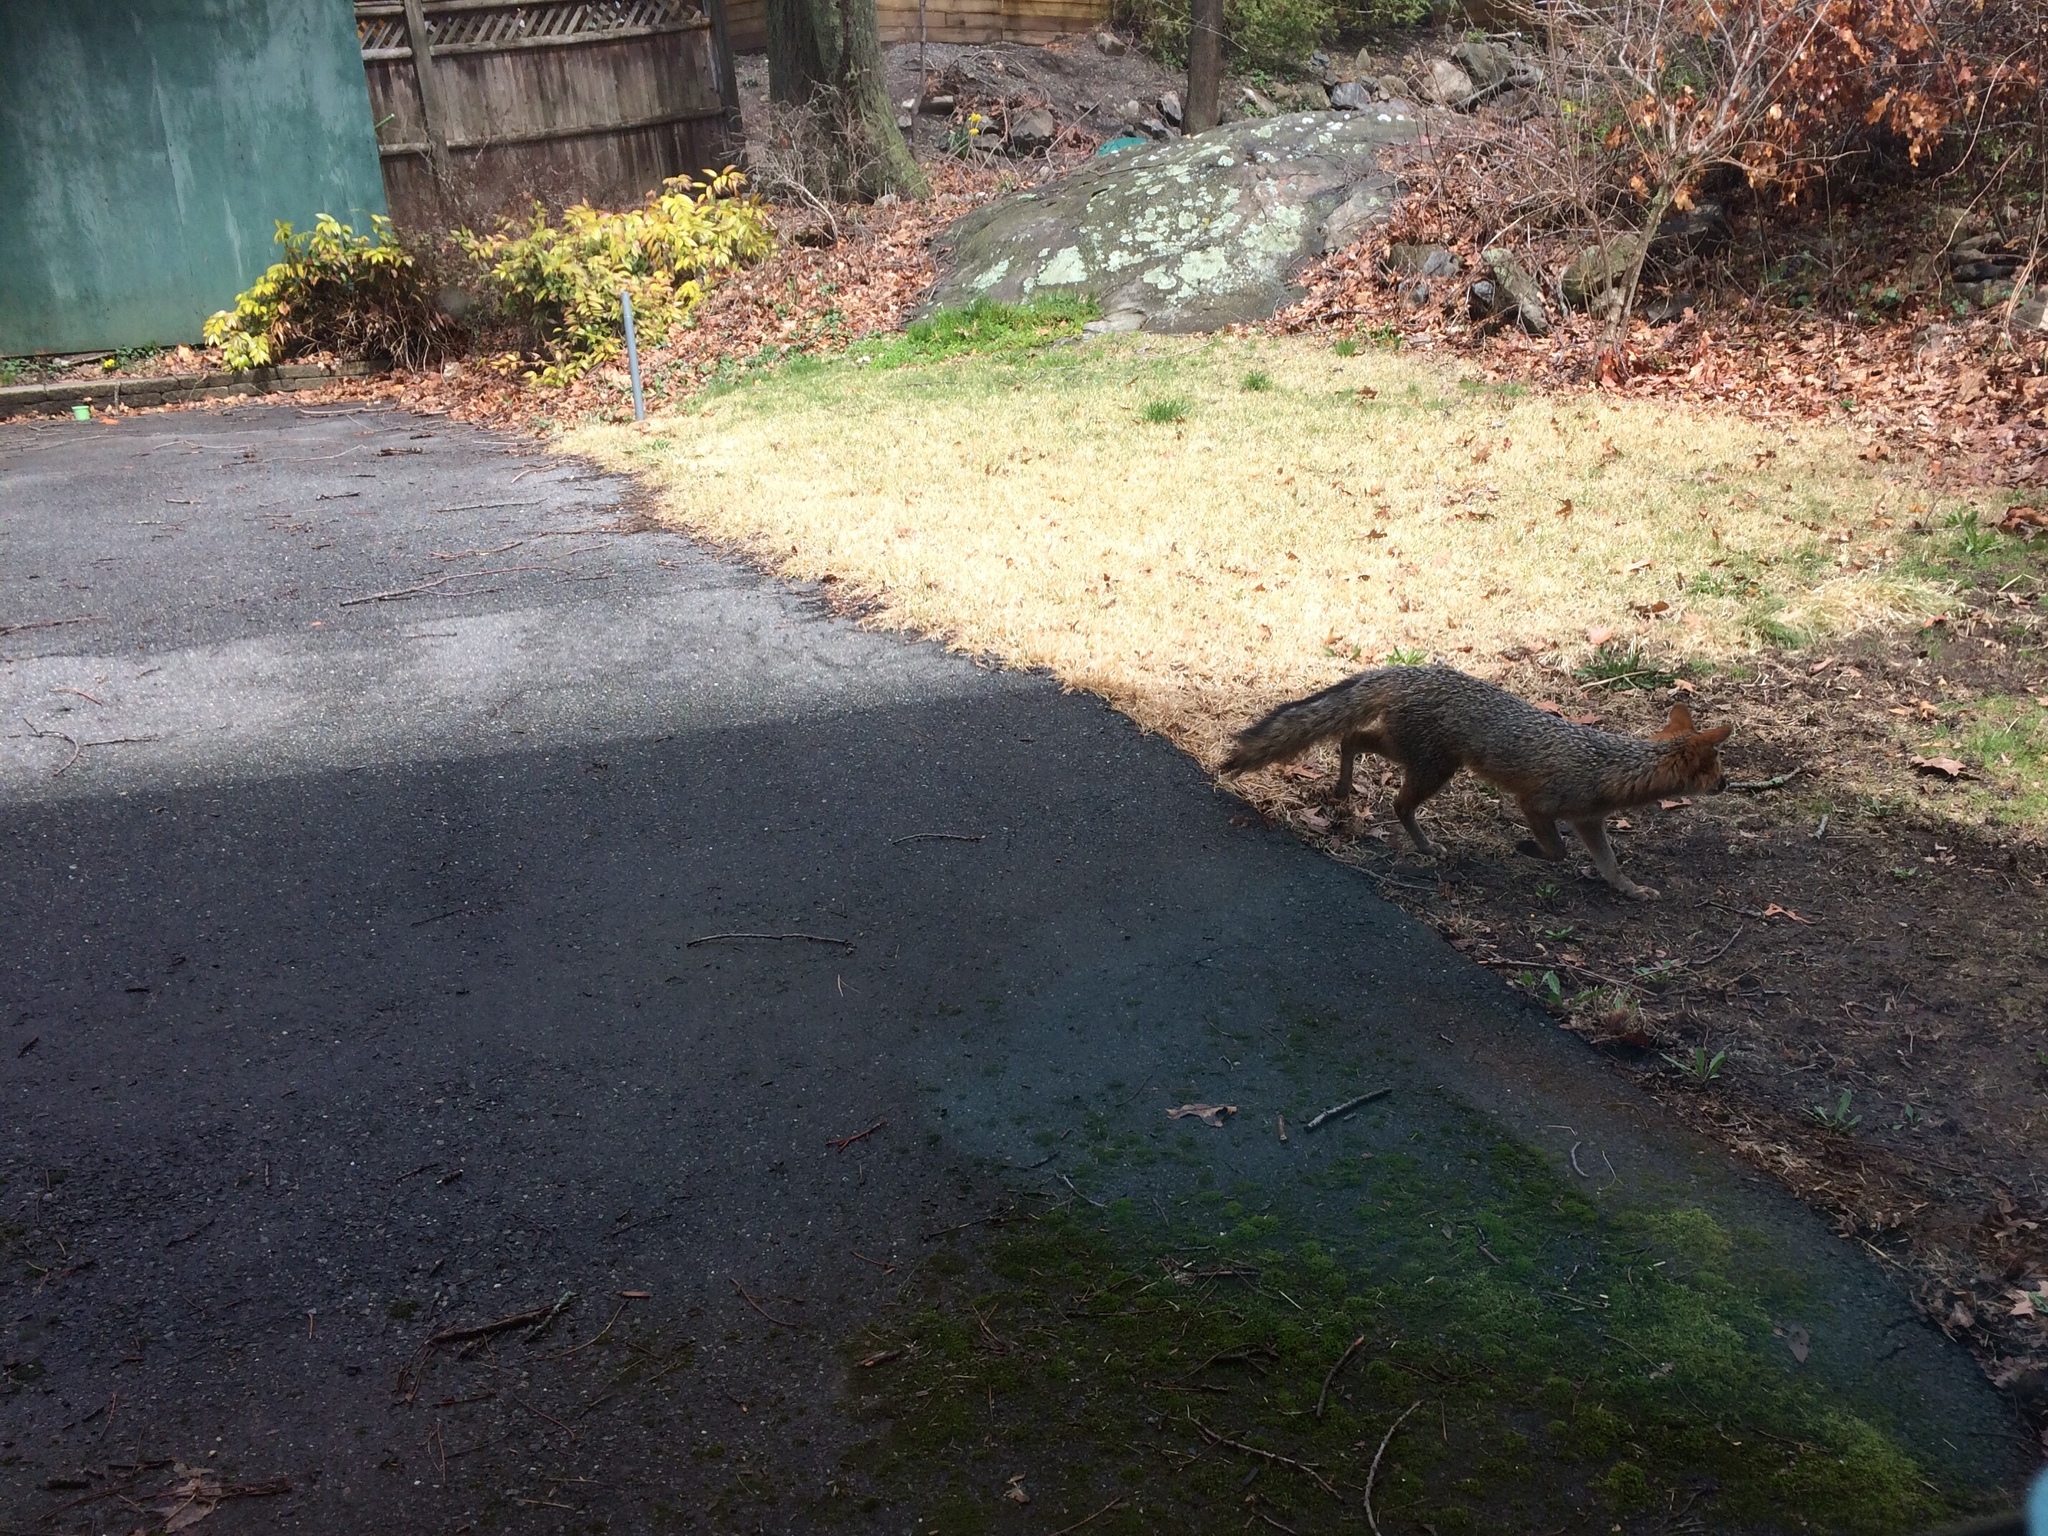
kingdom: Animalia
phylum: Chordata
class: Mammalia
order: Carnivora
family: Canidae
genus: Urocyon
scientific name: Urocyon cinereoargenteus
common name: Gray fox
